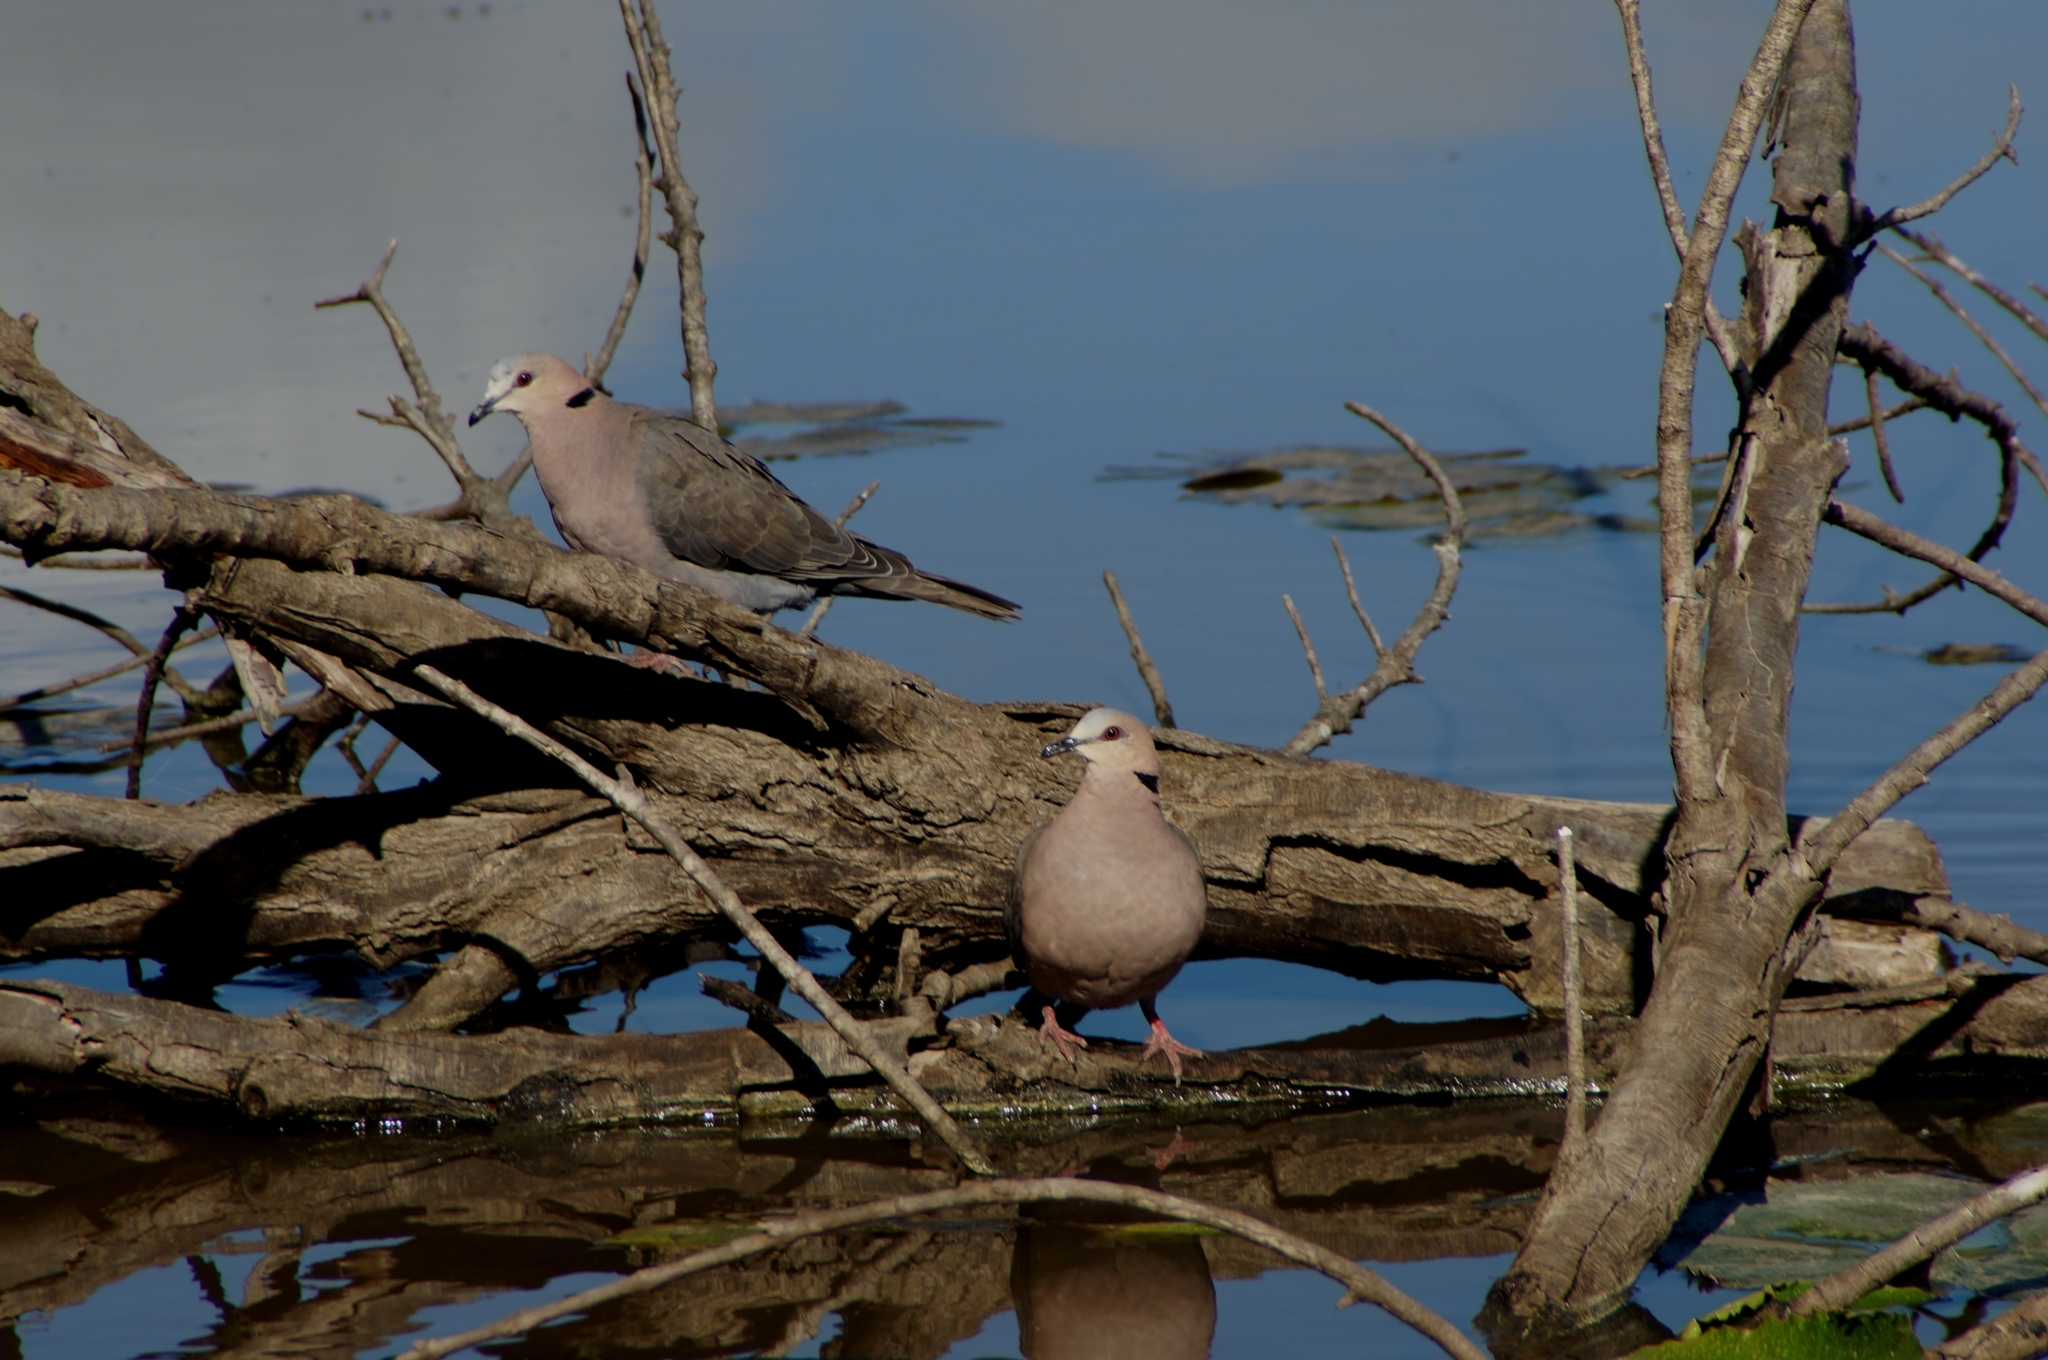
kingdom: Animalia
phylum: Chordata
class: Aves
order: Columbiformes
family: Columbidae
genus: Streptopelia
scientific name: Streptopelia semitorquata
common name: Red-eyed dove
